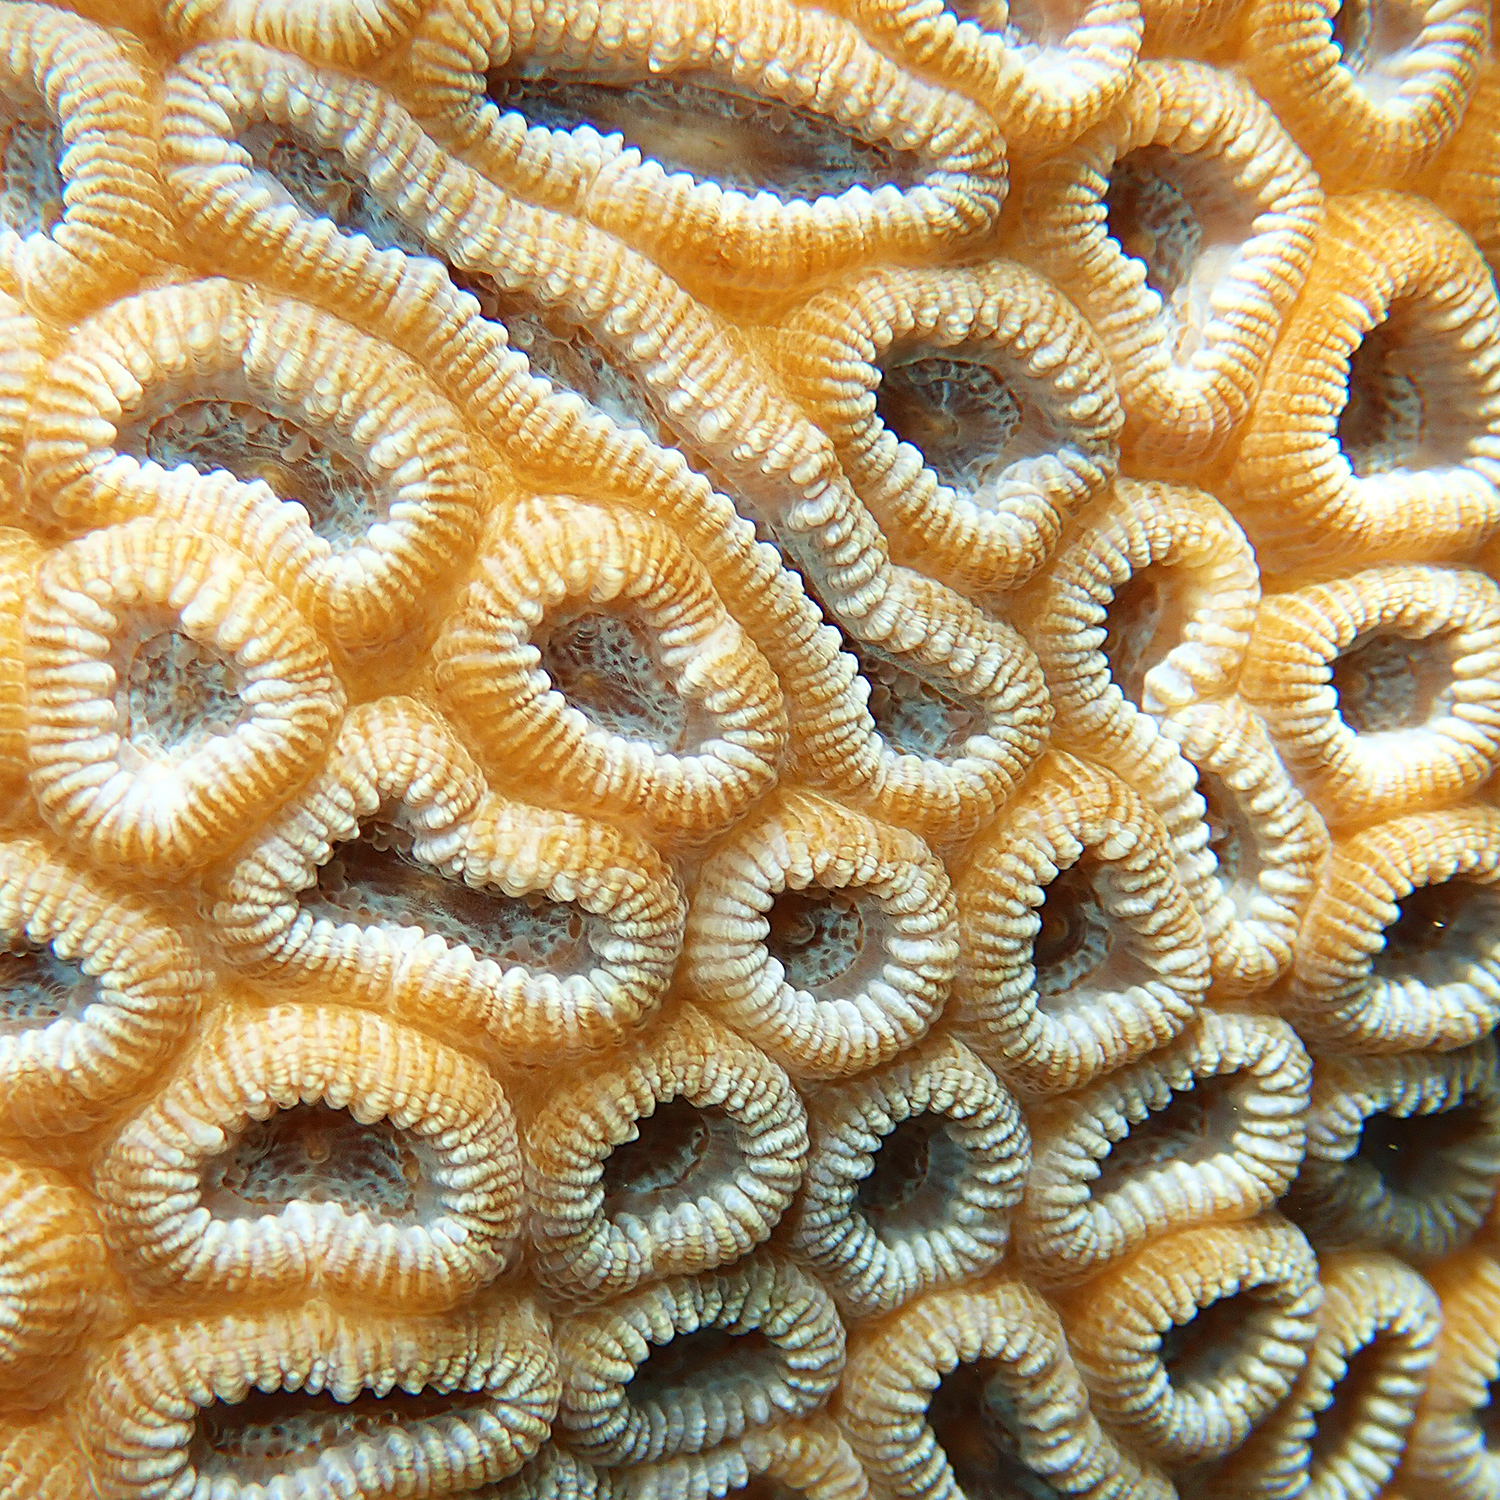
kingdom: Animalia
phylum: Cnidaria
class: Anthozoa
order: Scleractinia
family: Merulinidae
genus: Astrea
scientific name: Astrea curta
